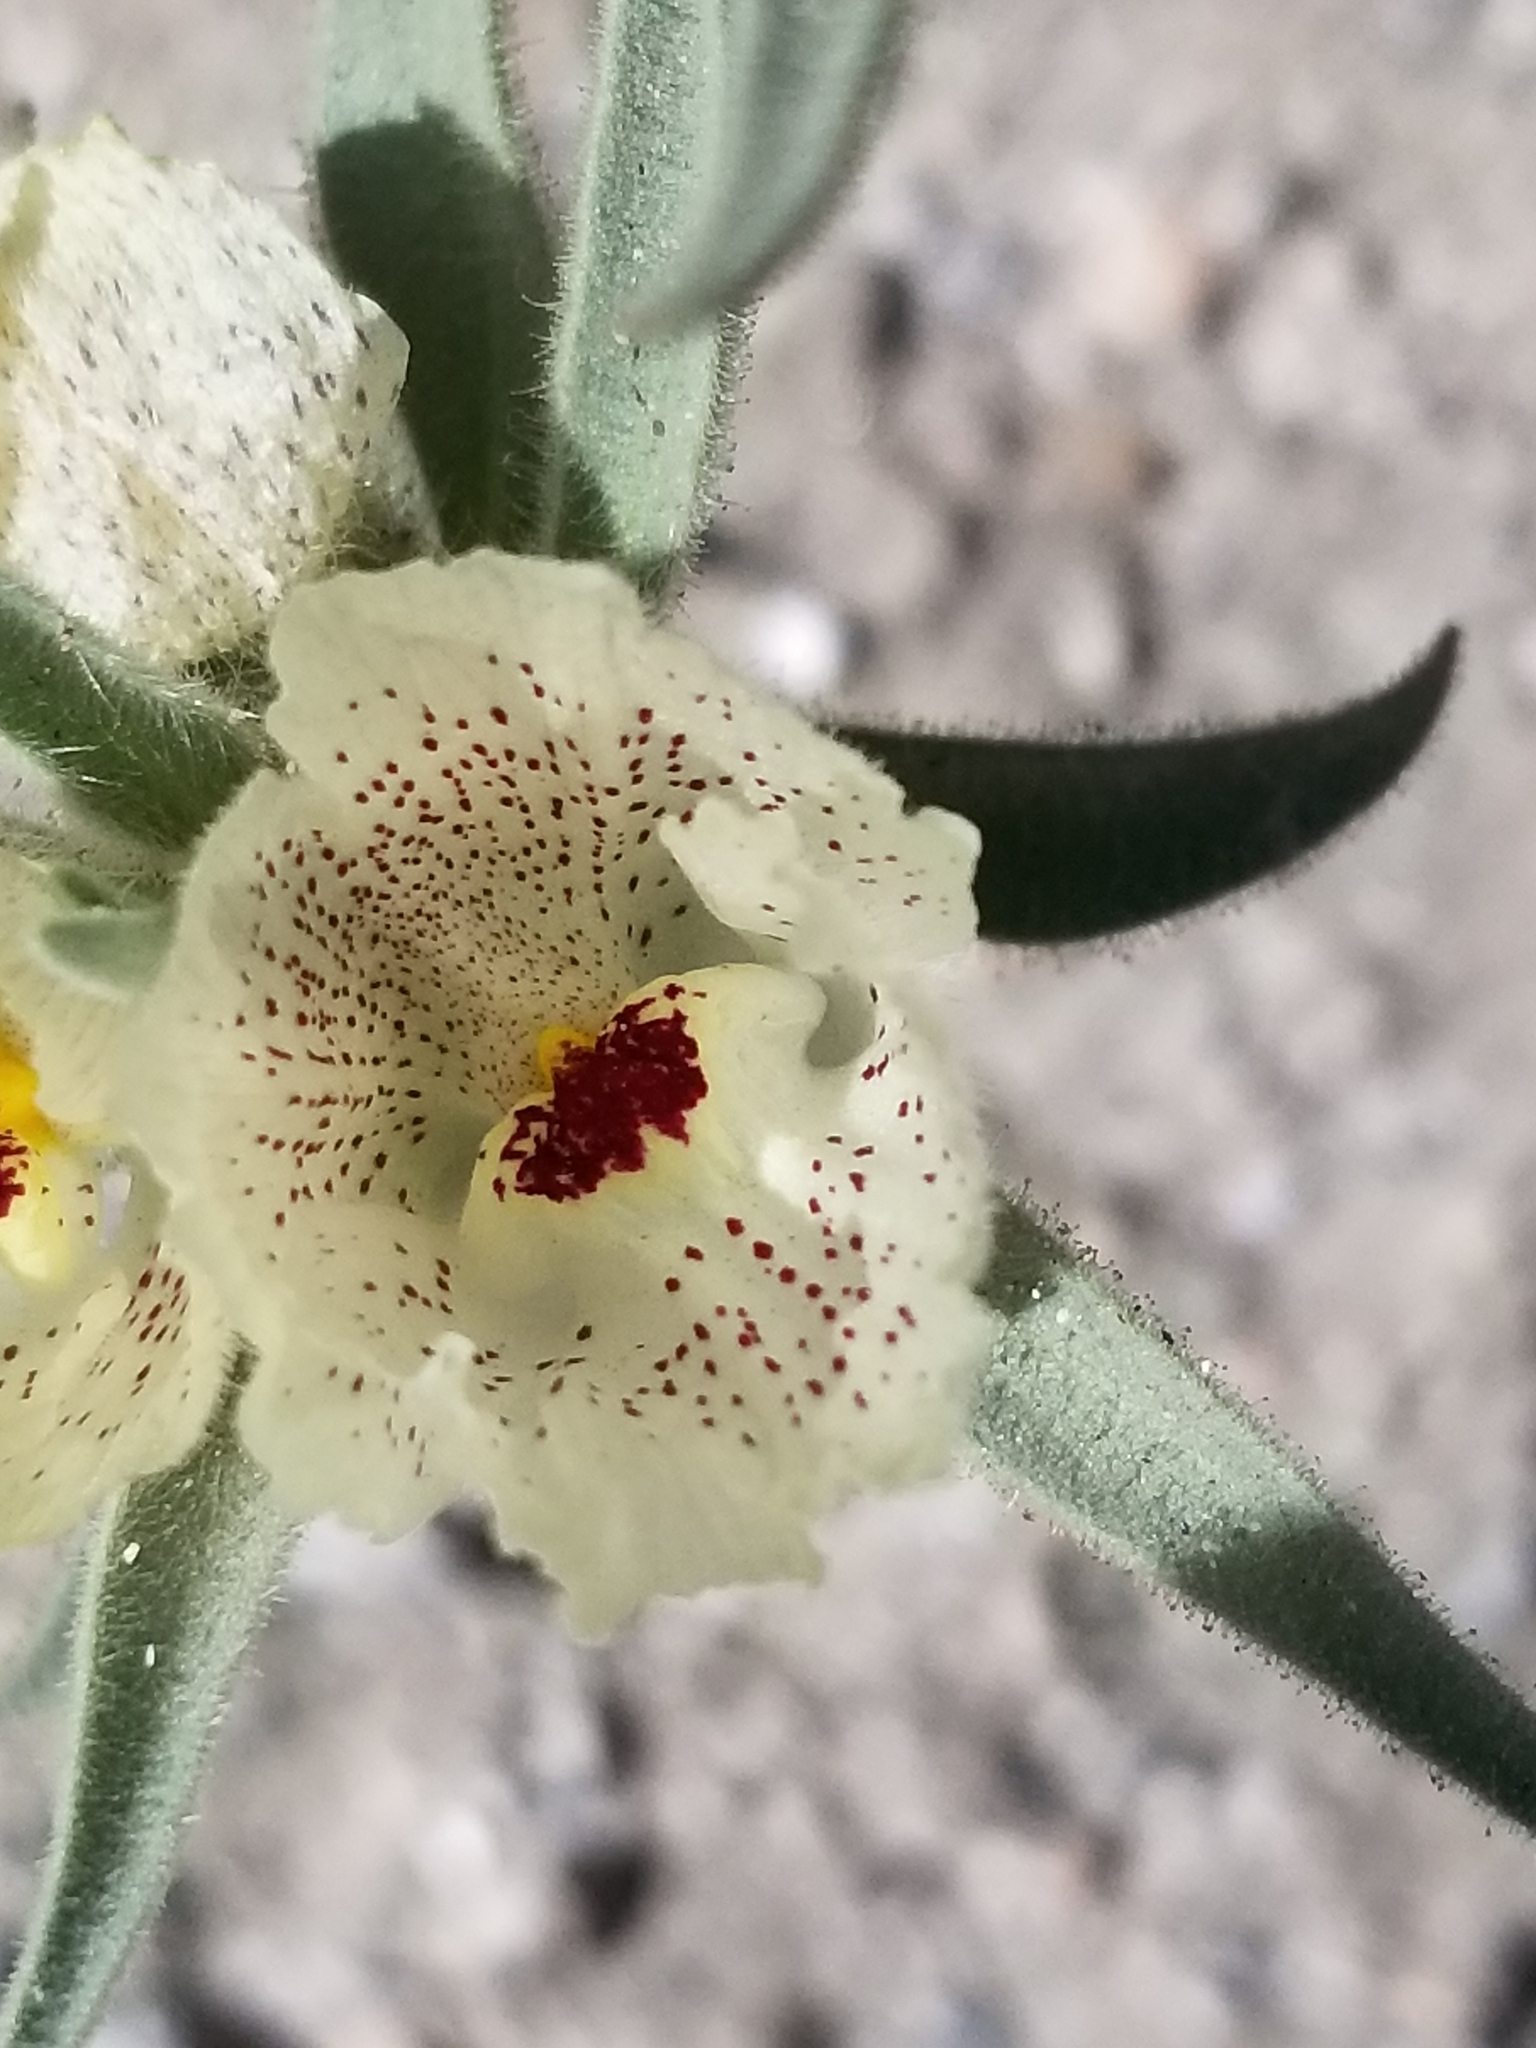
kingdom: Plantae
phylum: Tracheophyta
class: Magnoliopsida
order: Lamiales
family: Plantaginaceae
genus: Mohavea
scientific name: Mohavea confertiflora
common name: Ghost flower
